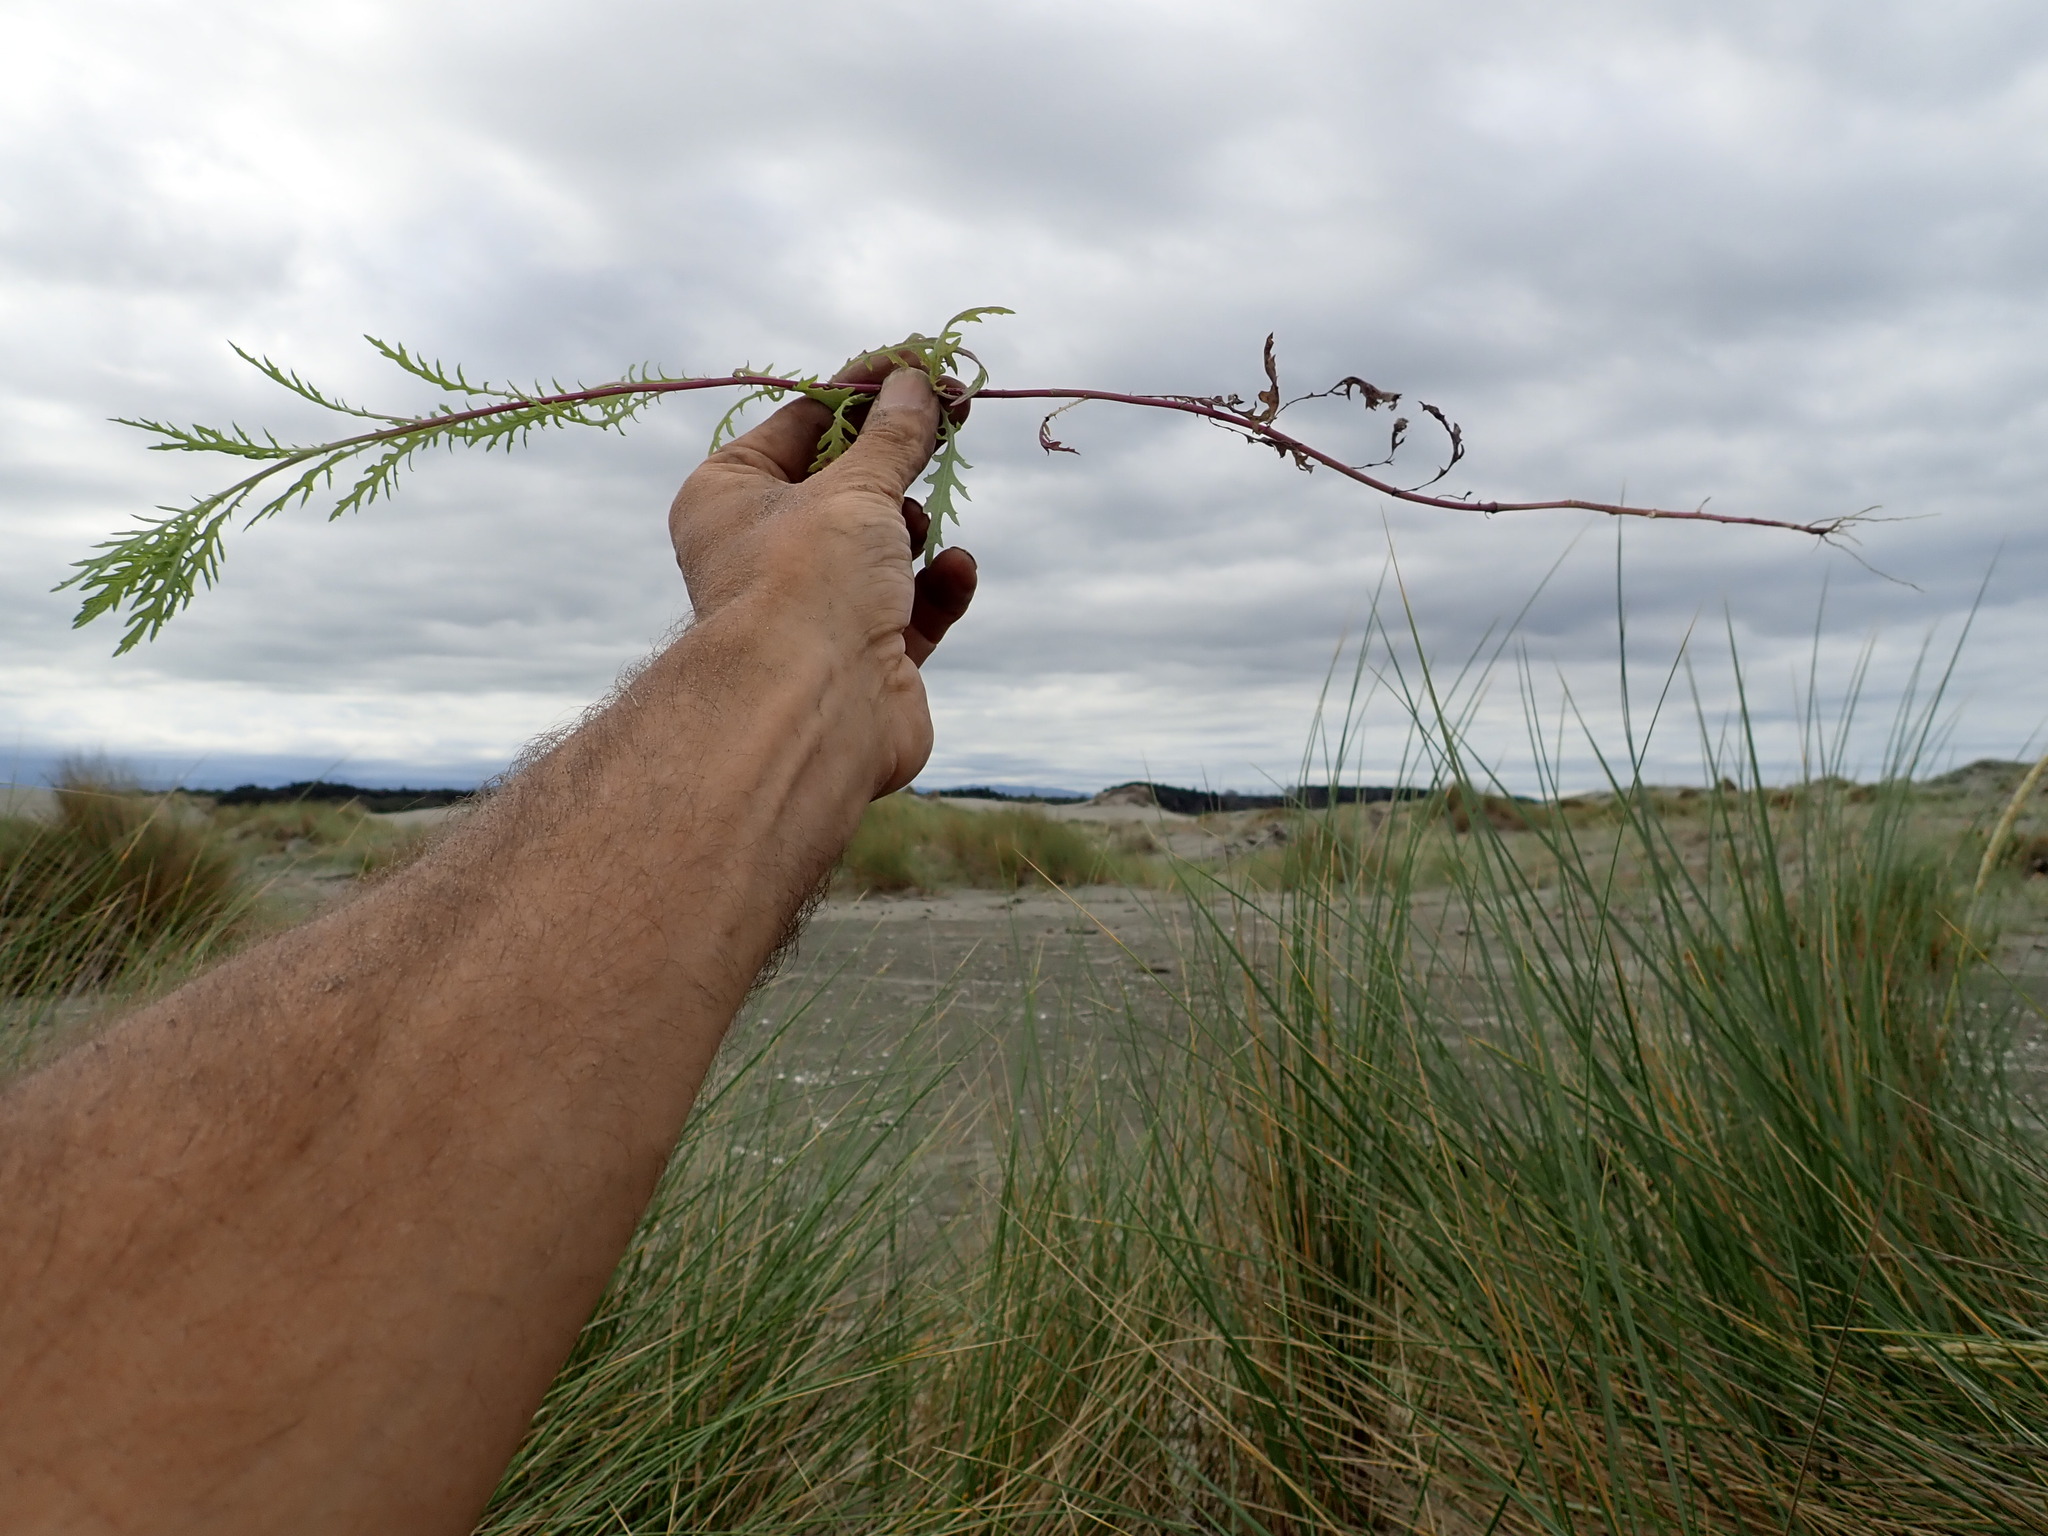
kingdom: Plantae
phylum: Tracheophyta
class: Magnoliopsida
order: Asterales
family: Asteraceae
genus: Senecio
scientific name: Senecio bipinnatisectus
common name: Australian fireweed
